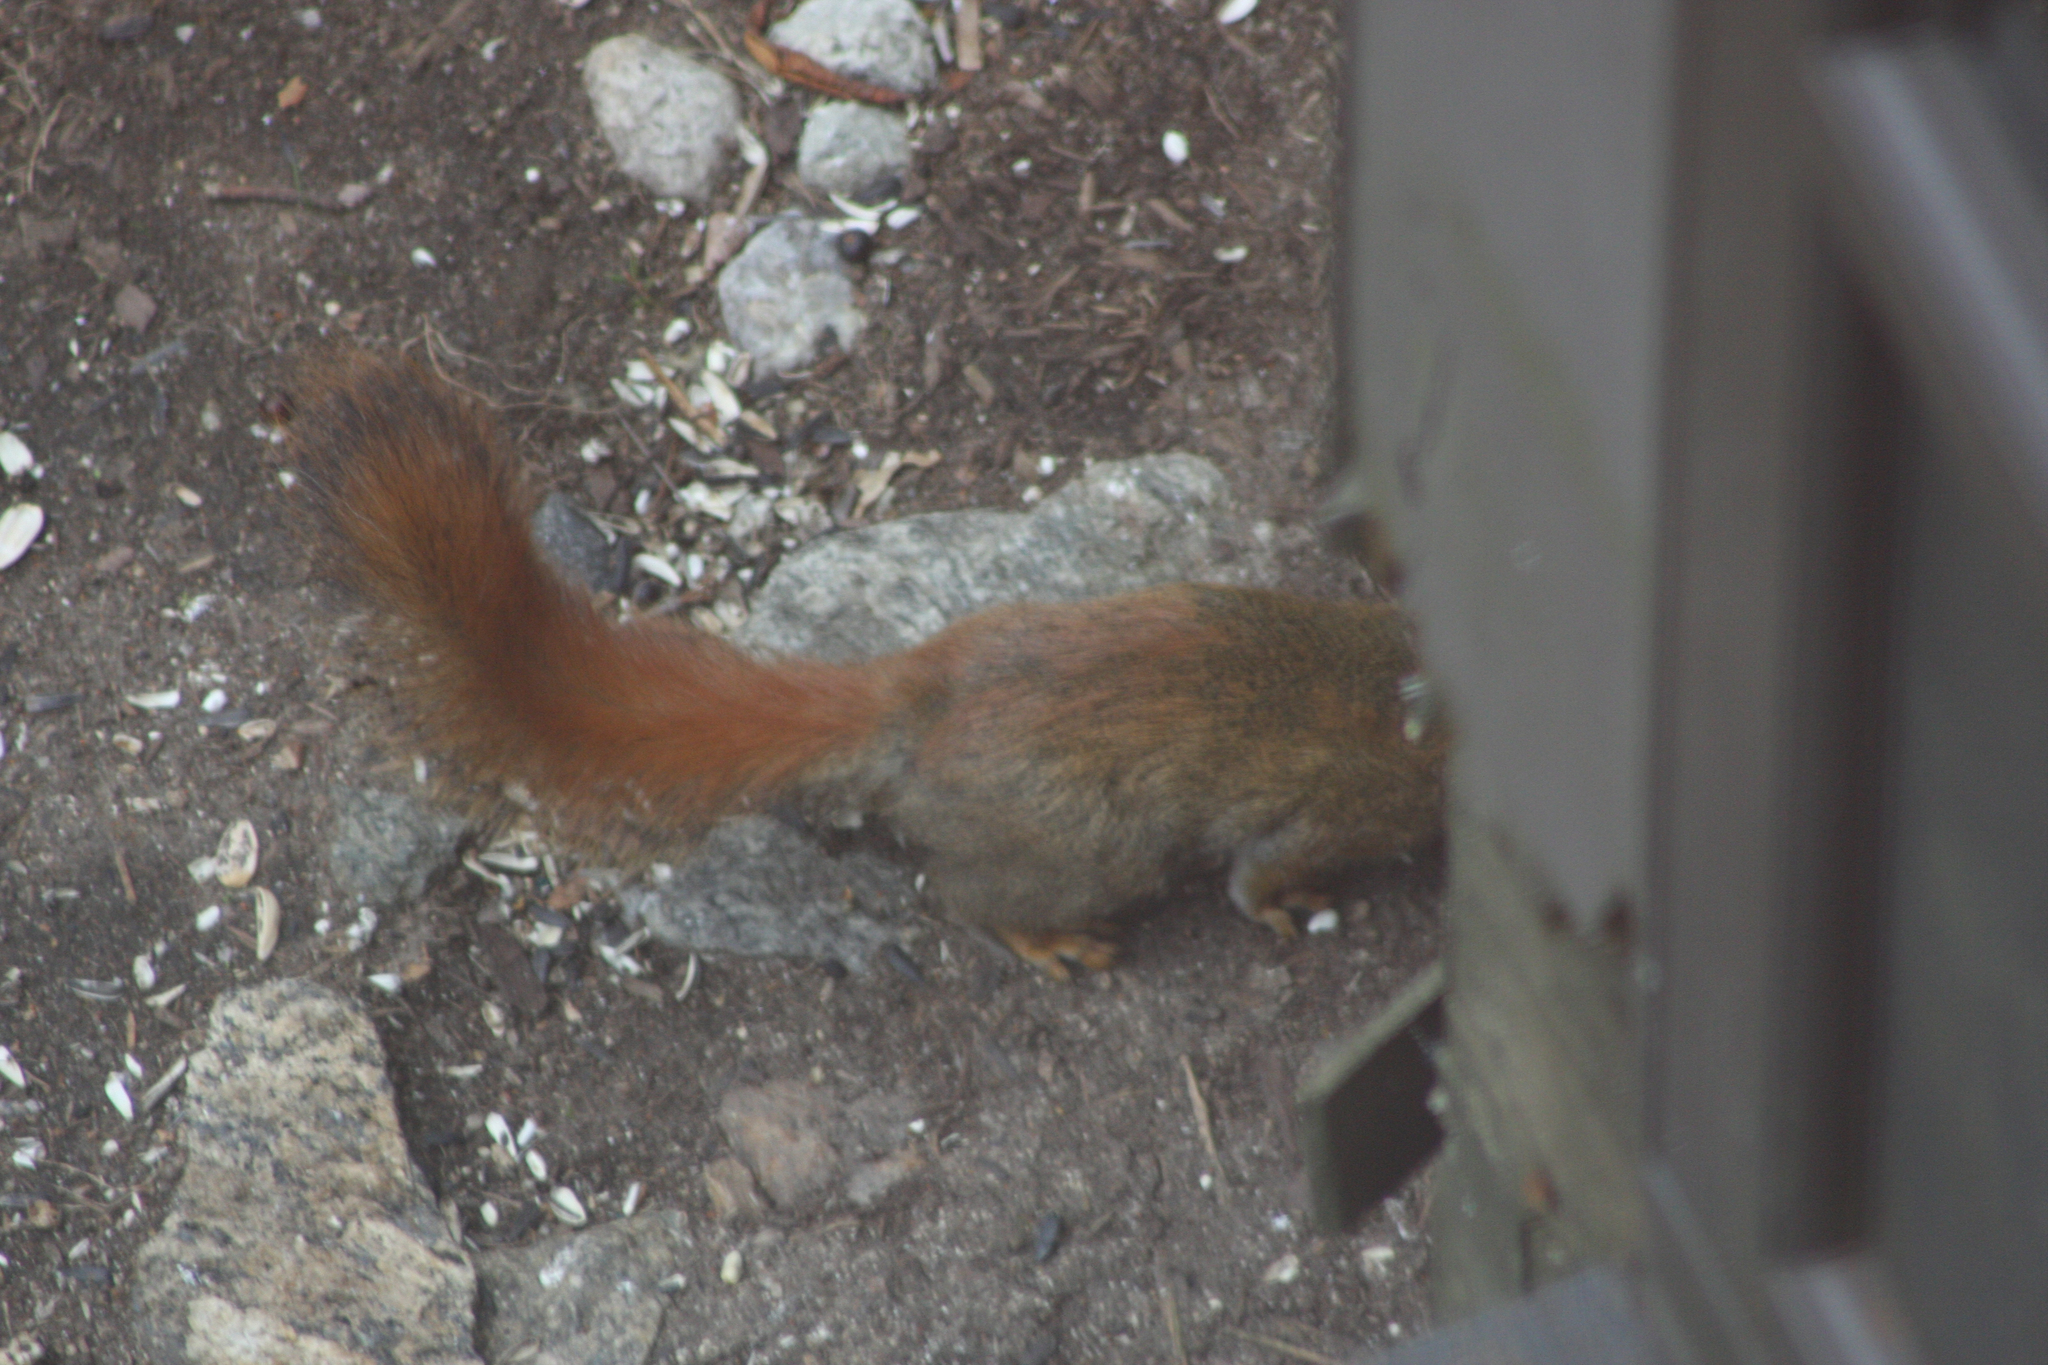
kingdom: Animalia
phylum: Chordata
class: Mammalia
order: Rodentia
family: Sciuridae
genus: Tamiasciurus
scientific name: Tamiasciurus hudsonicus
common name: Red squirrel
